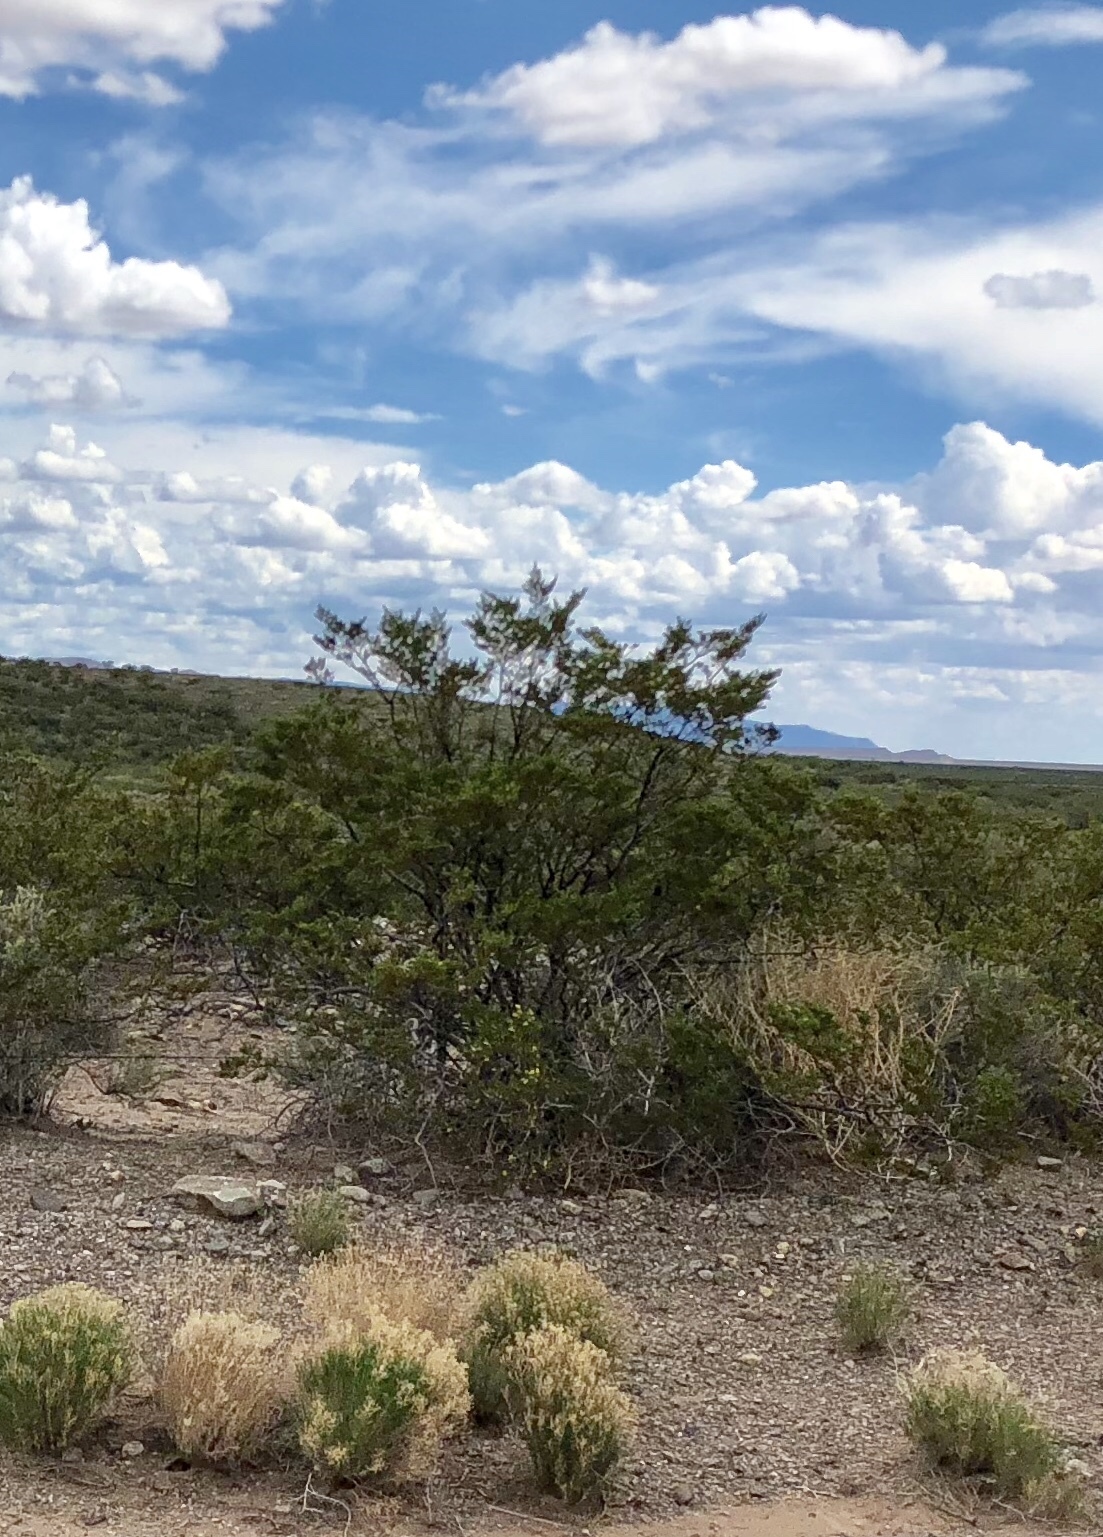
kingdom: Plantae
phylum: Tracheophyta
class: Magnoliopsida
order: Zygophyllales
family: Zygophyllaceae
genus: Larrea
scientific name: Larrea tridentata
